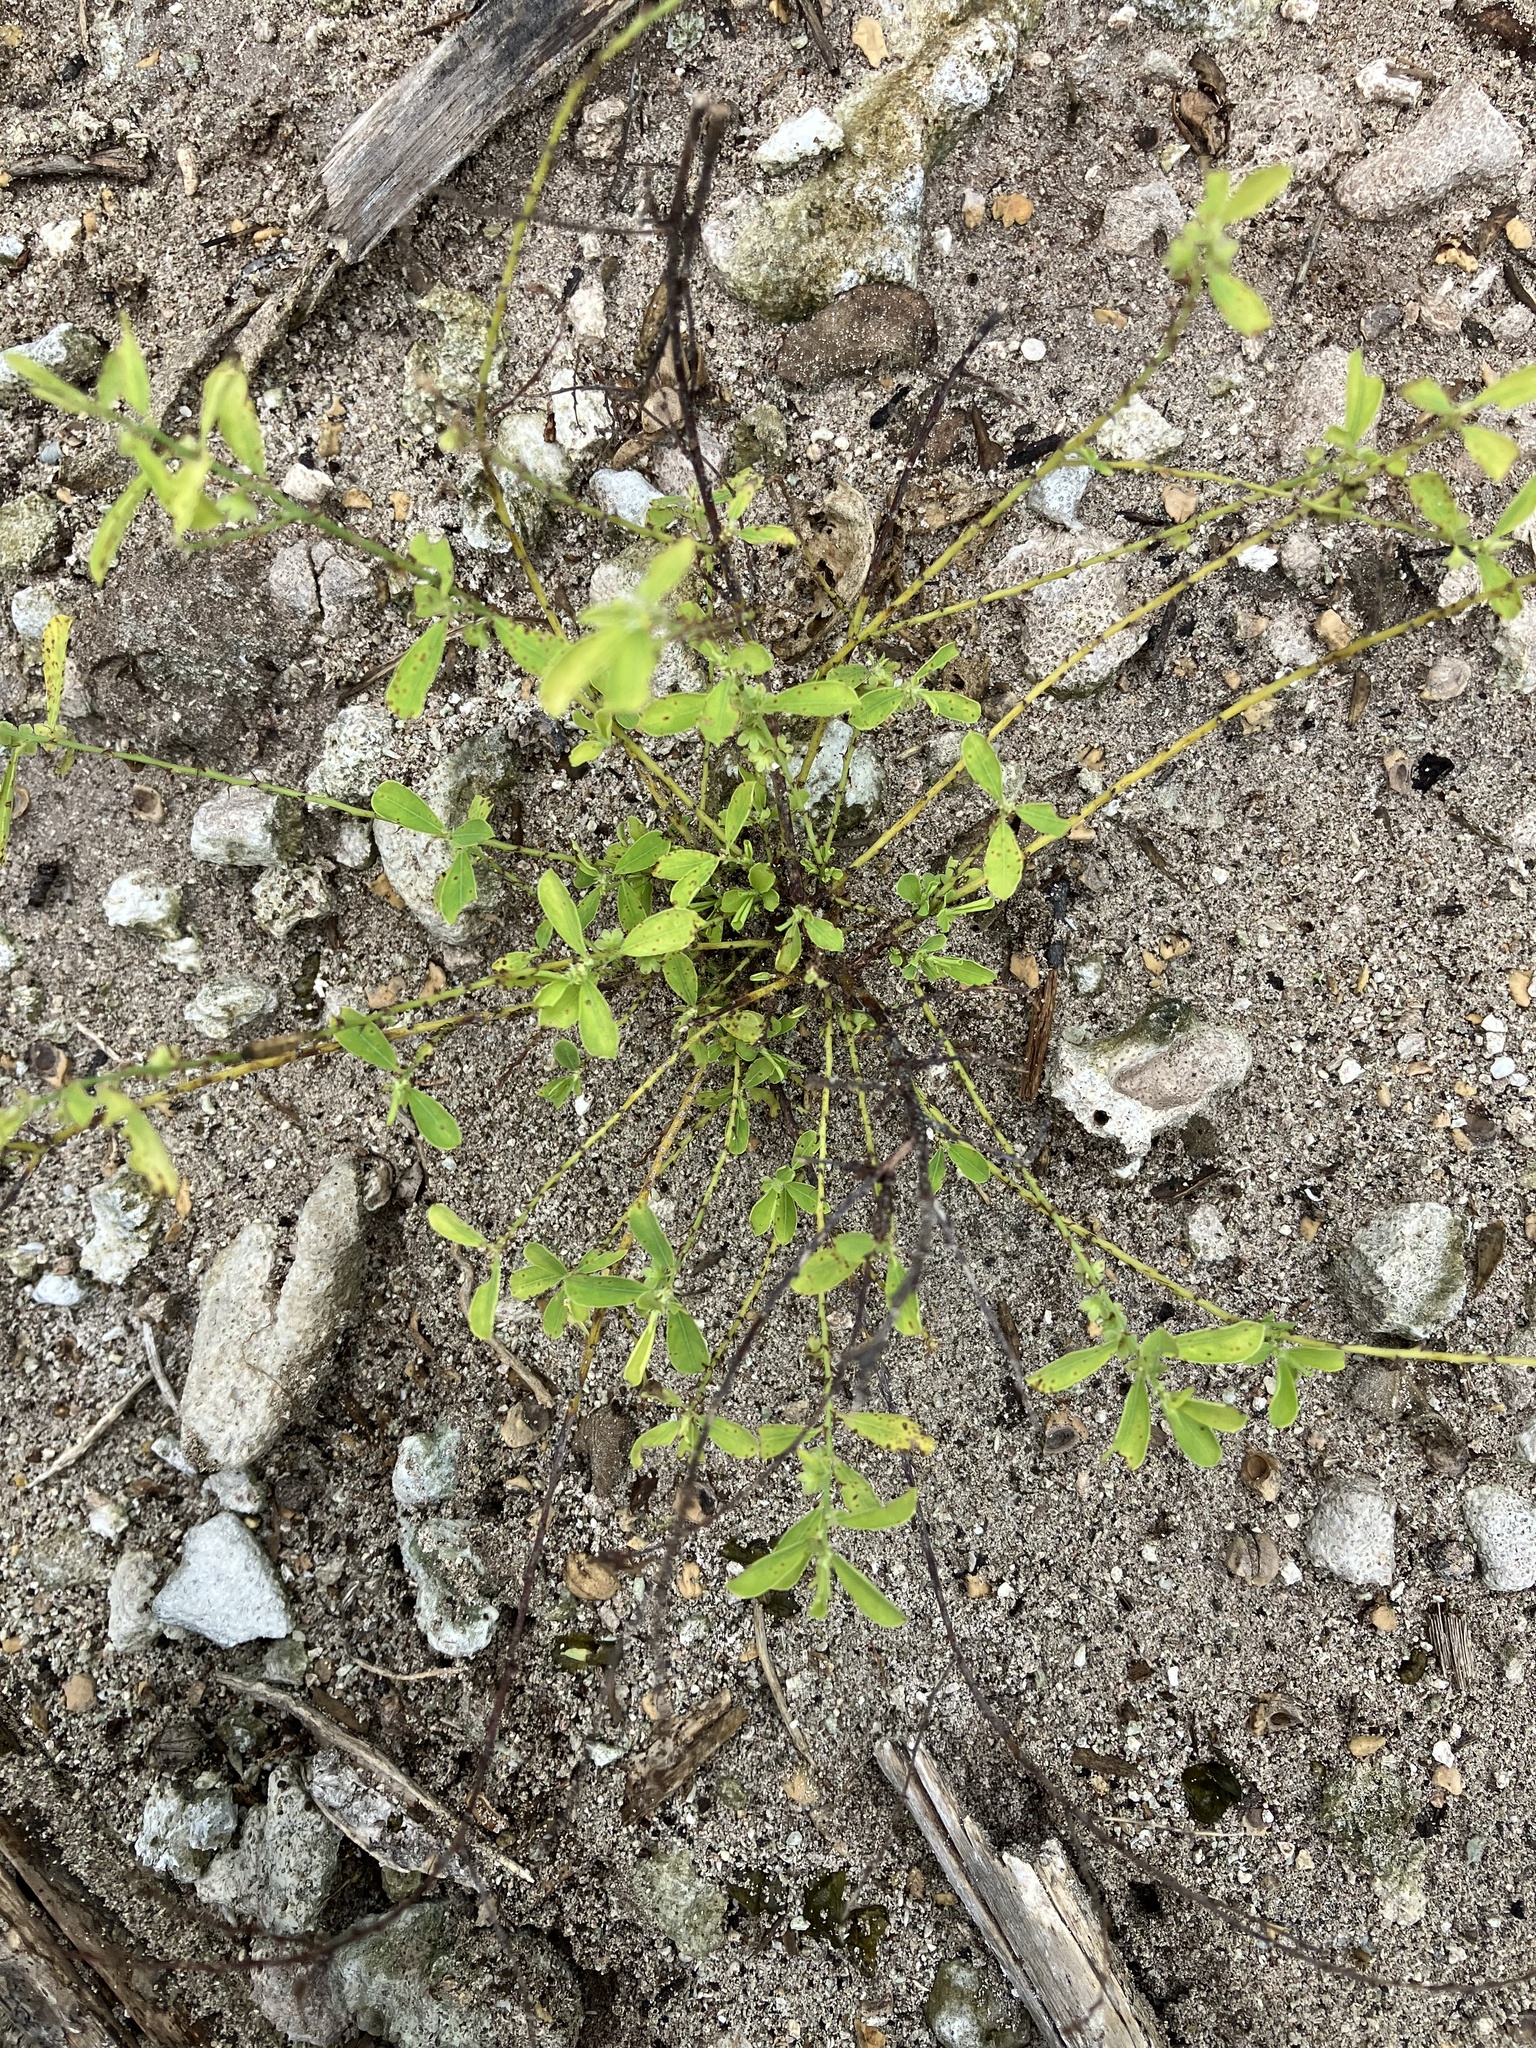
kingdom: Plantae
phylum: Tracheophyta
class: Magnoliopsida
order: Malpighiales
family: Phyllanthaceae
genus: Phyllanthus
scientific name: Phyllanthus amarus
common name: Carry me seed
